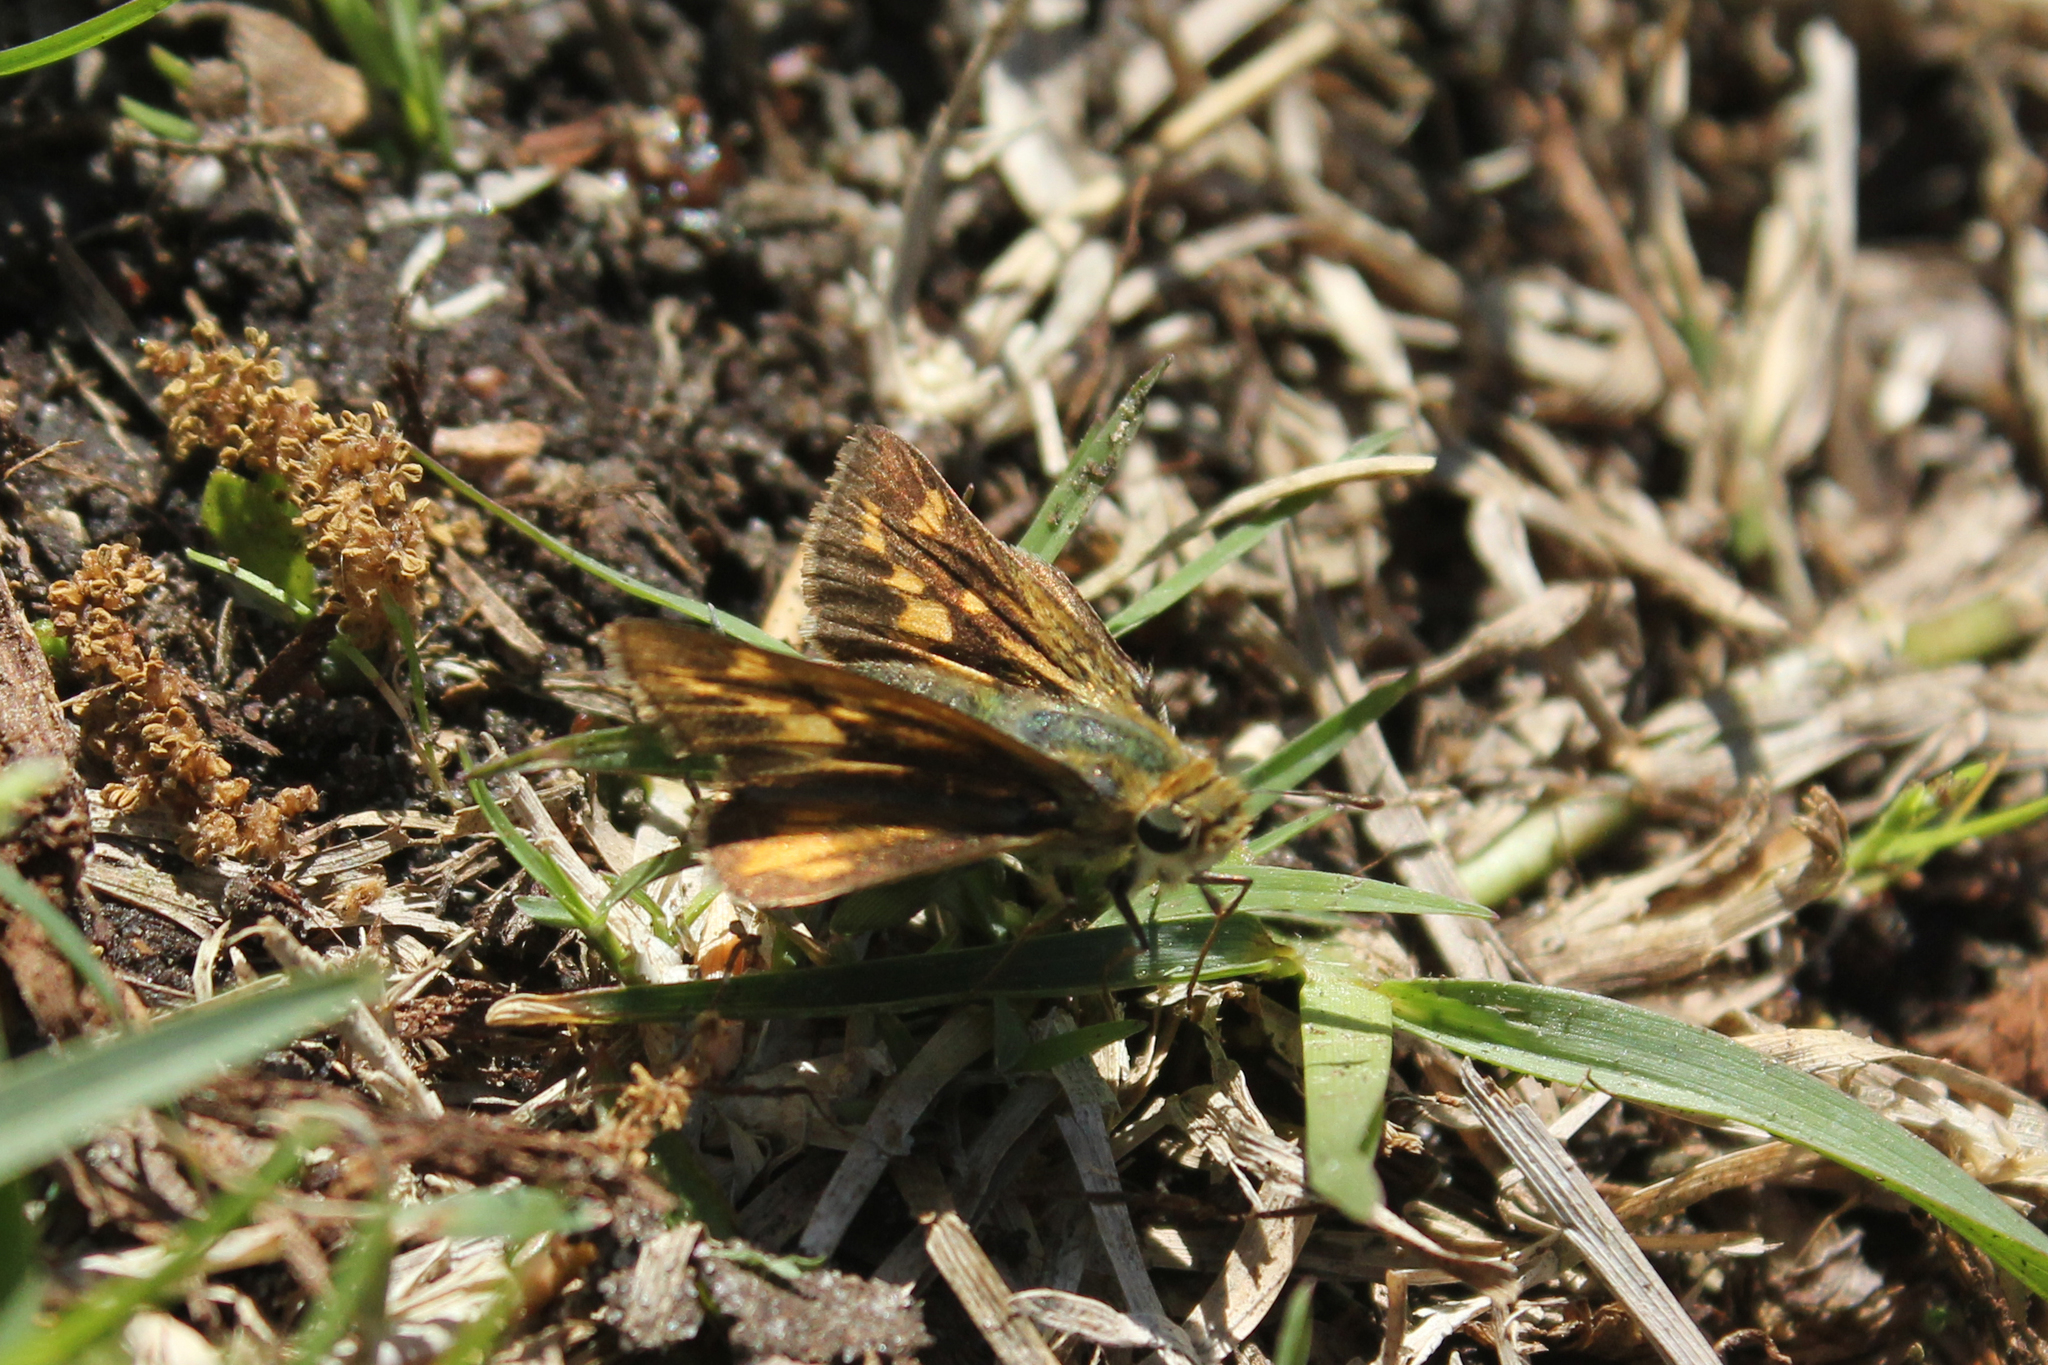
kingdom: Animalia
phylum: Arthropoda
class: Insecta
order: Lepidoptera
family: Hesperiidae
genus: Hylephila
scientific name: Hylephila phyleus
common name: Fiery skipper
